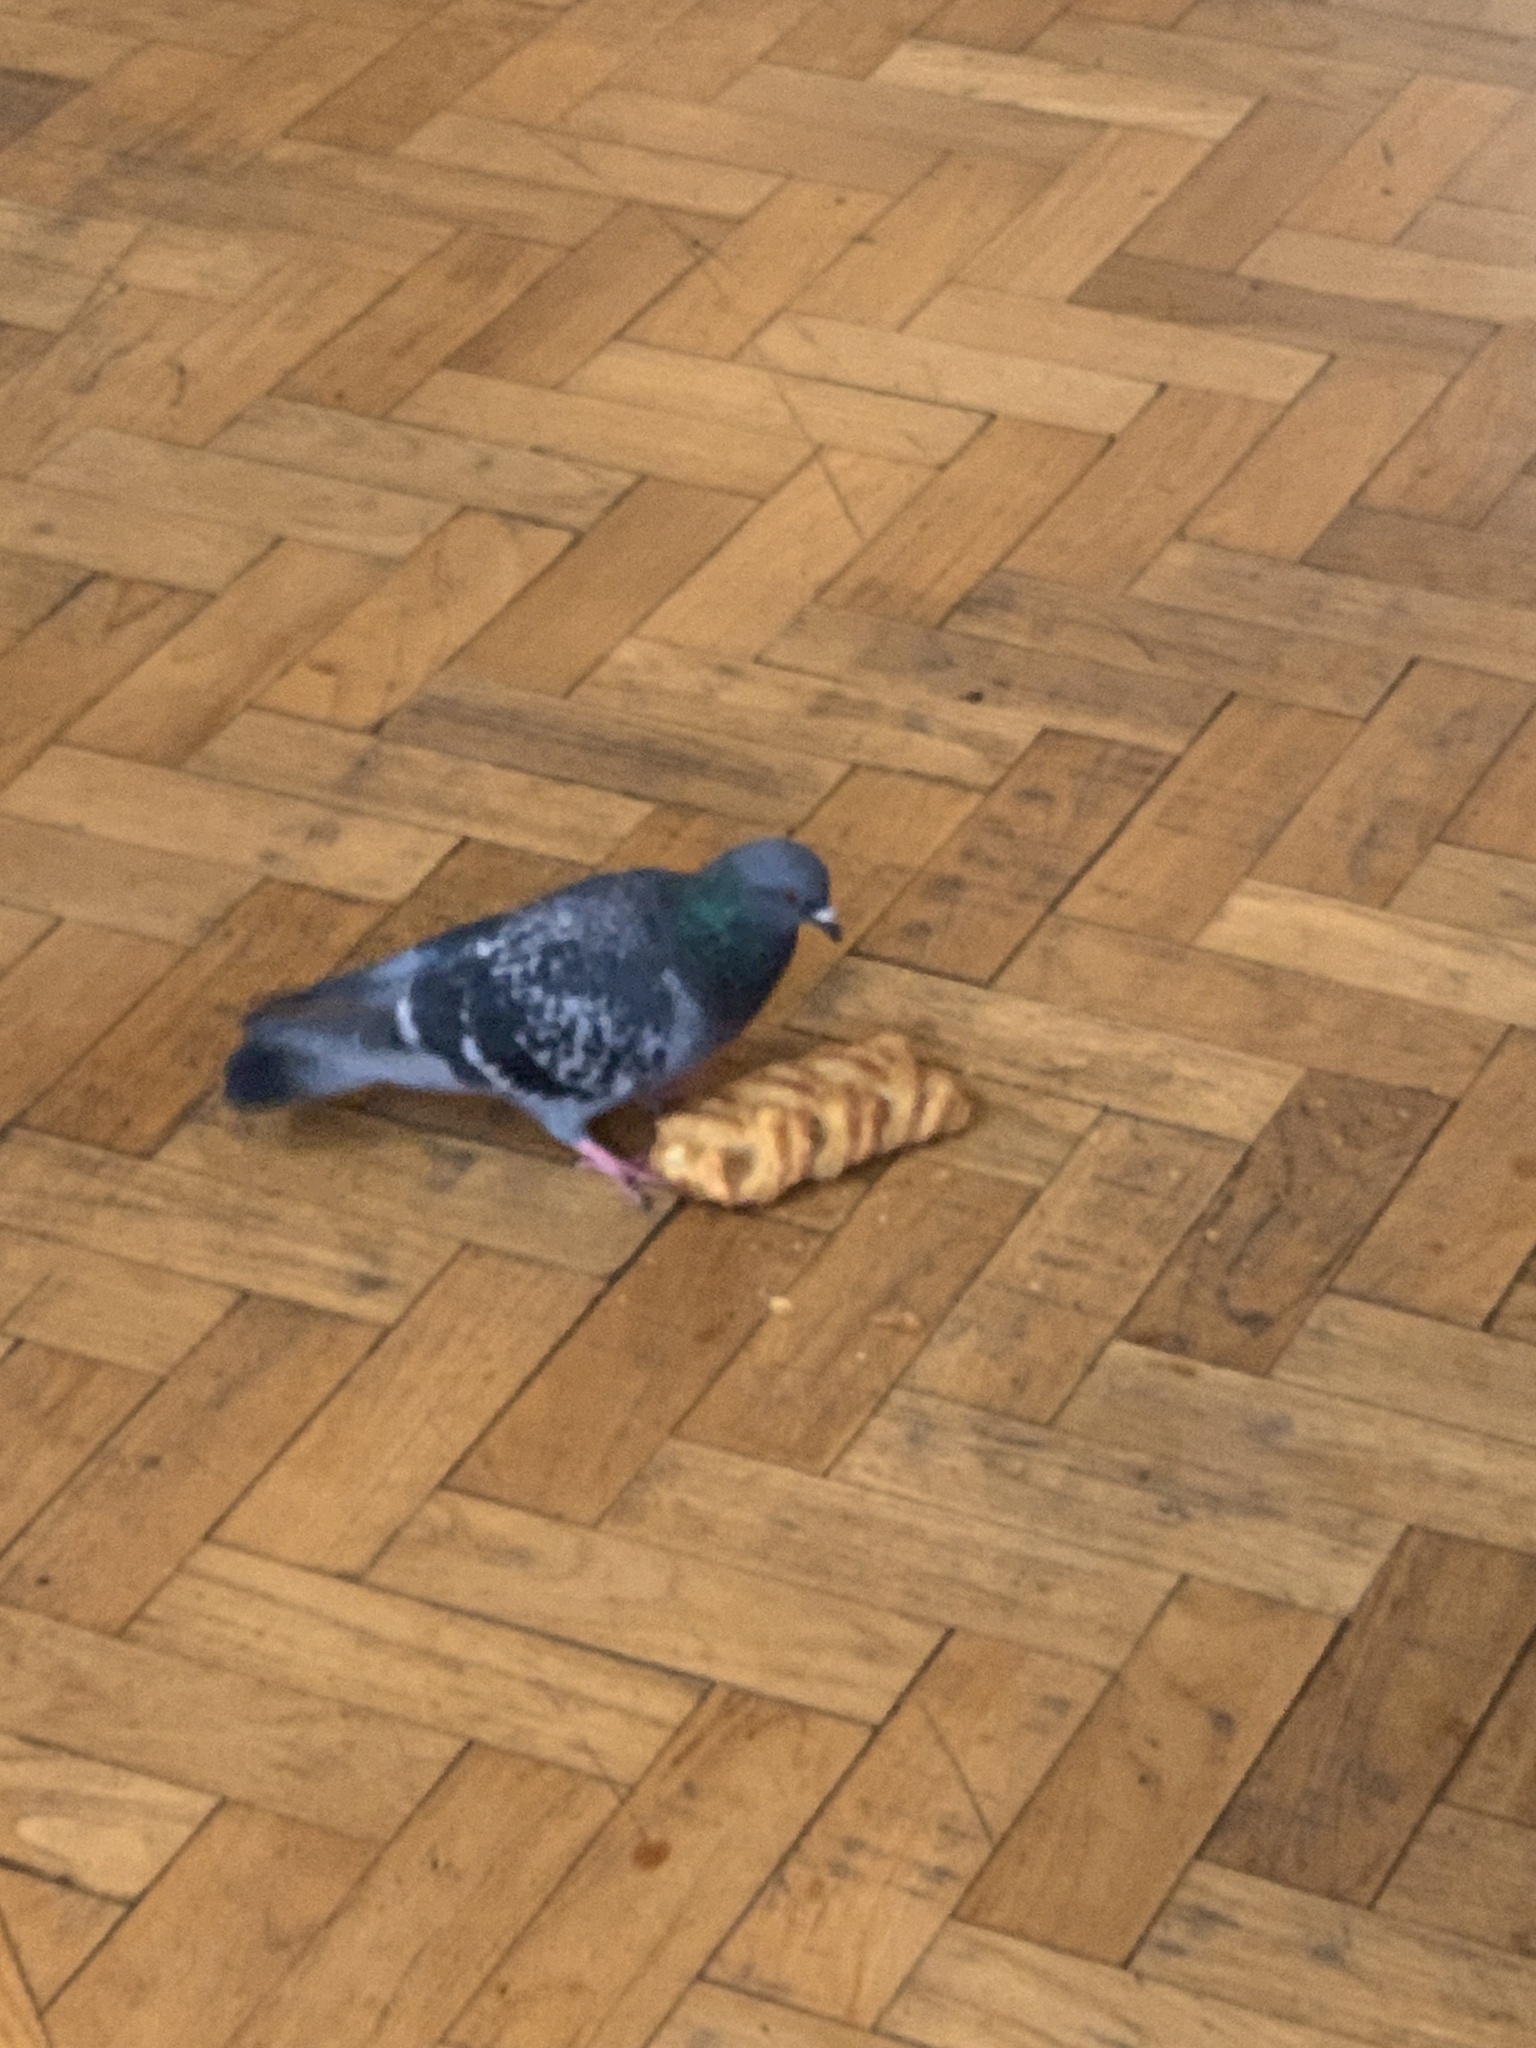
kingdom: Animalia
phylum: Chordata
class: Aves
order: Columbiformes
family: Columbidae
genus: Columba
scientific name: Columba livia
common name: Rock pigeon
